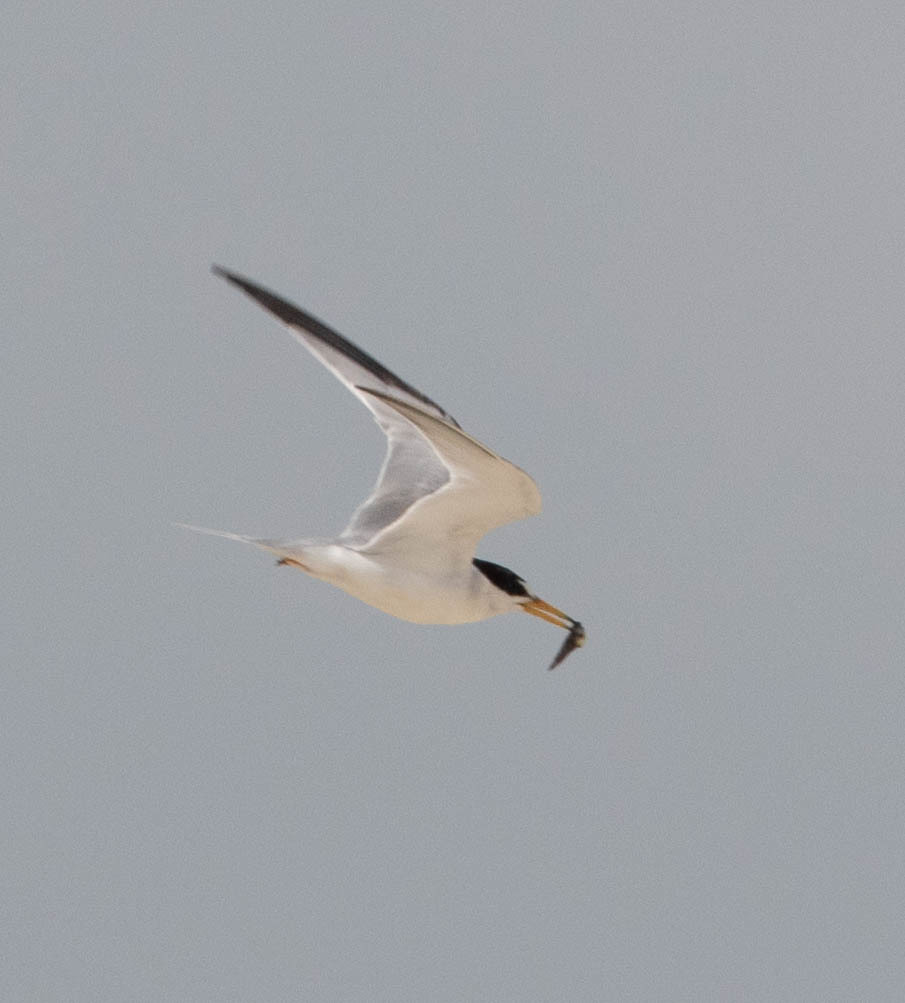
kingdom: Animalia
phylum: Chordata
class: Aves
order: Charadriiformes
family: Laridae
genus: Sternula
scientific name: Sternula antillarum
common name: Least tern
